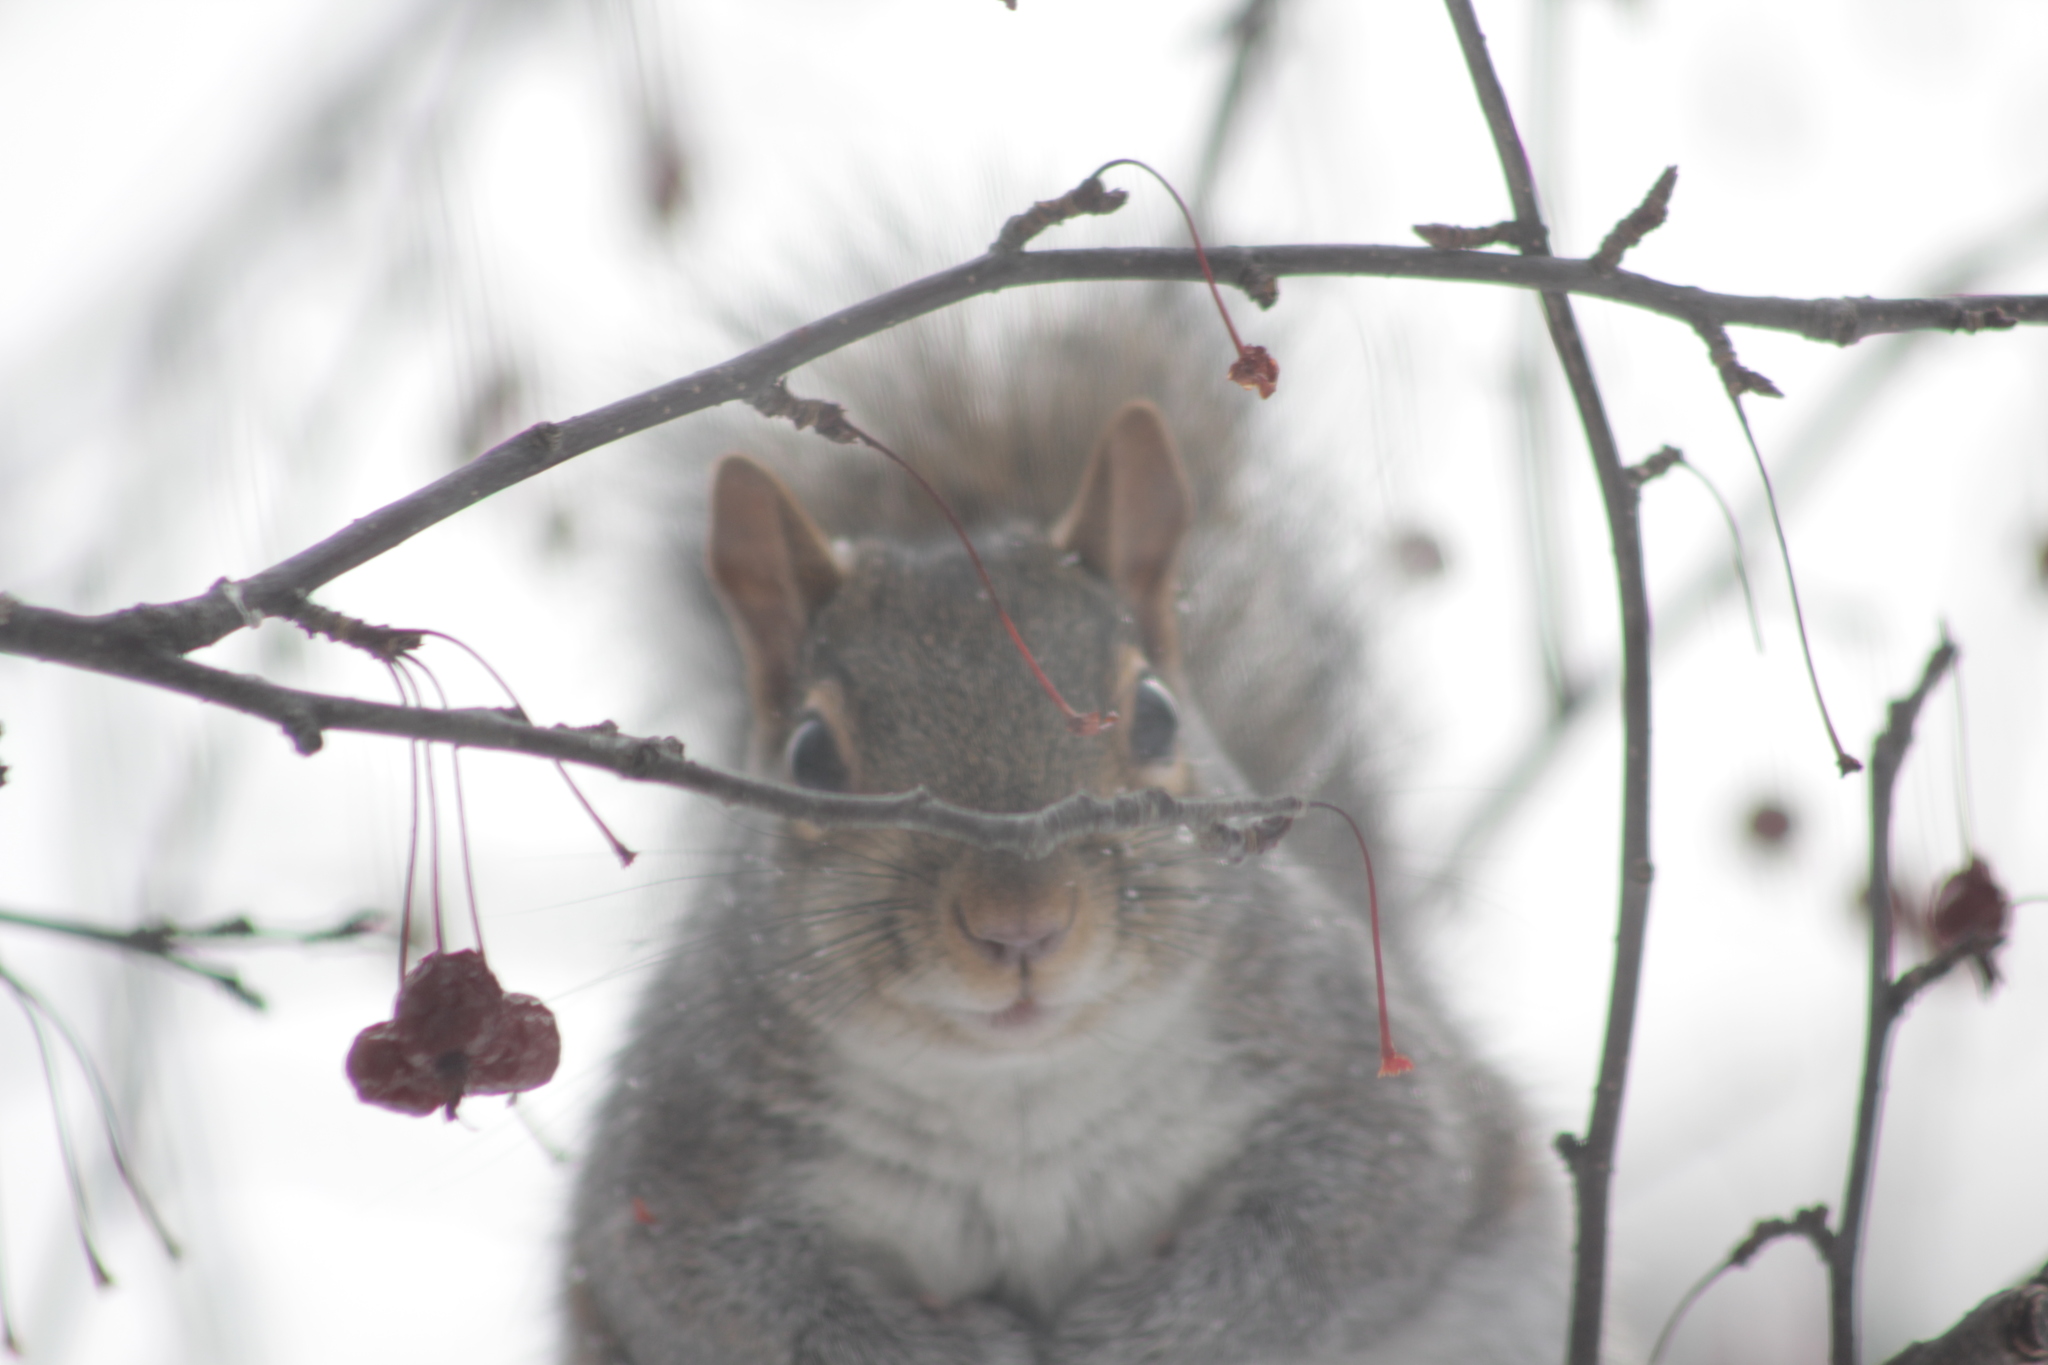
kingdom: Animalia
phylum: Chordata
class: Mammalia
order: Rodentia
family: Sciuridae
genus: Sciurus
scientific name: Sciurus carolinensis
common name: Eastern gray squirrel
